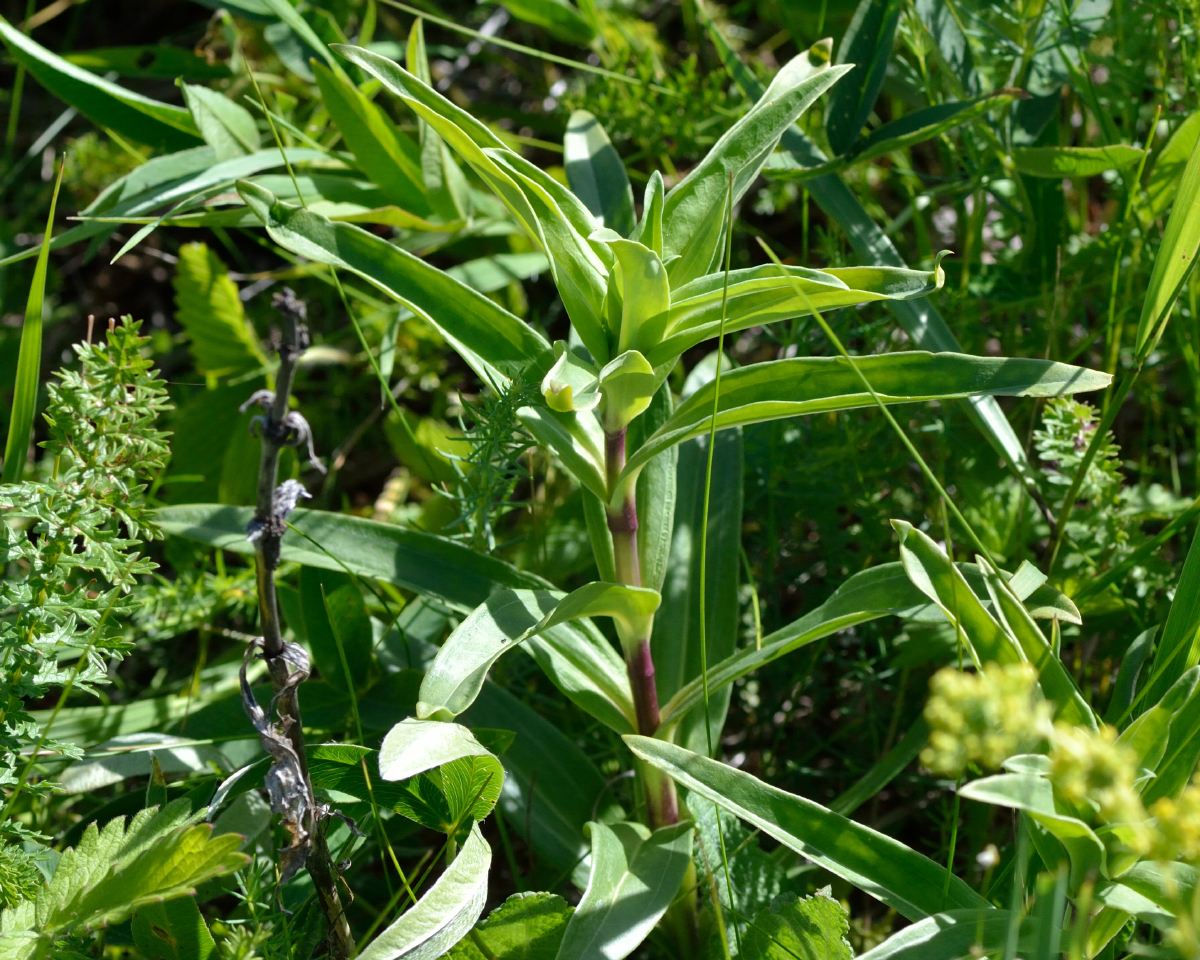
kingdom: Plantae
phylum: Tracheophyta
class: Magnoliopsida
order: Gentianales
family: Gentianaceae
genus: Gentiana
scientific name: Gentiana cruciata
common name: Cross gentian
